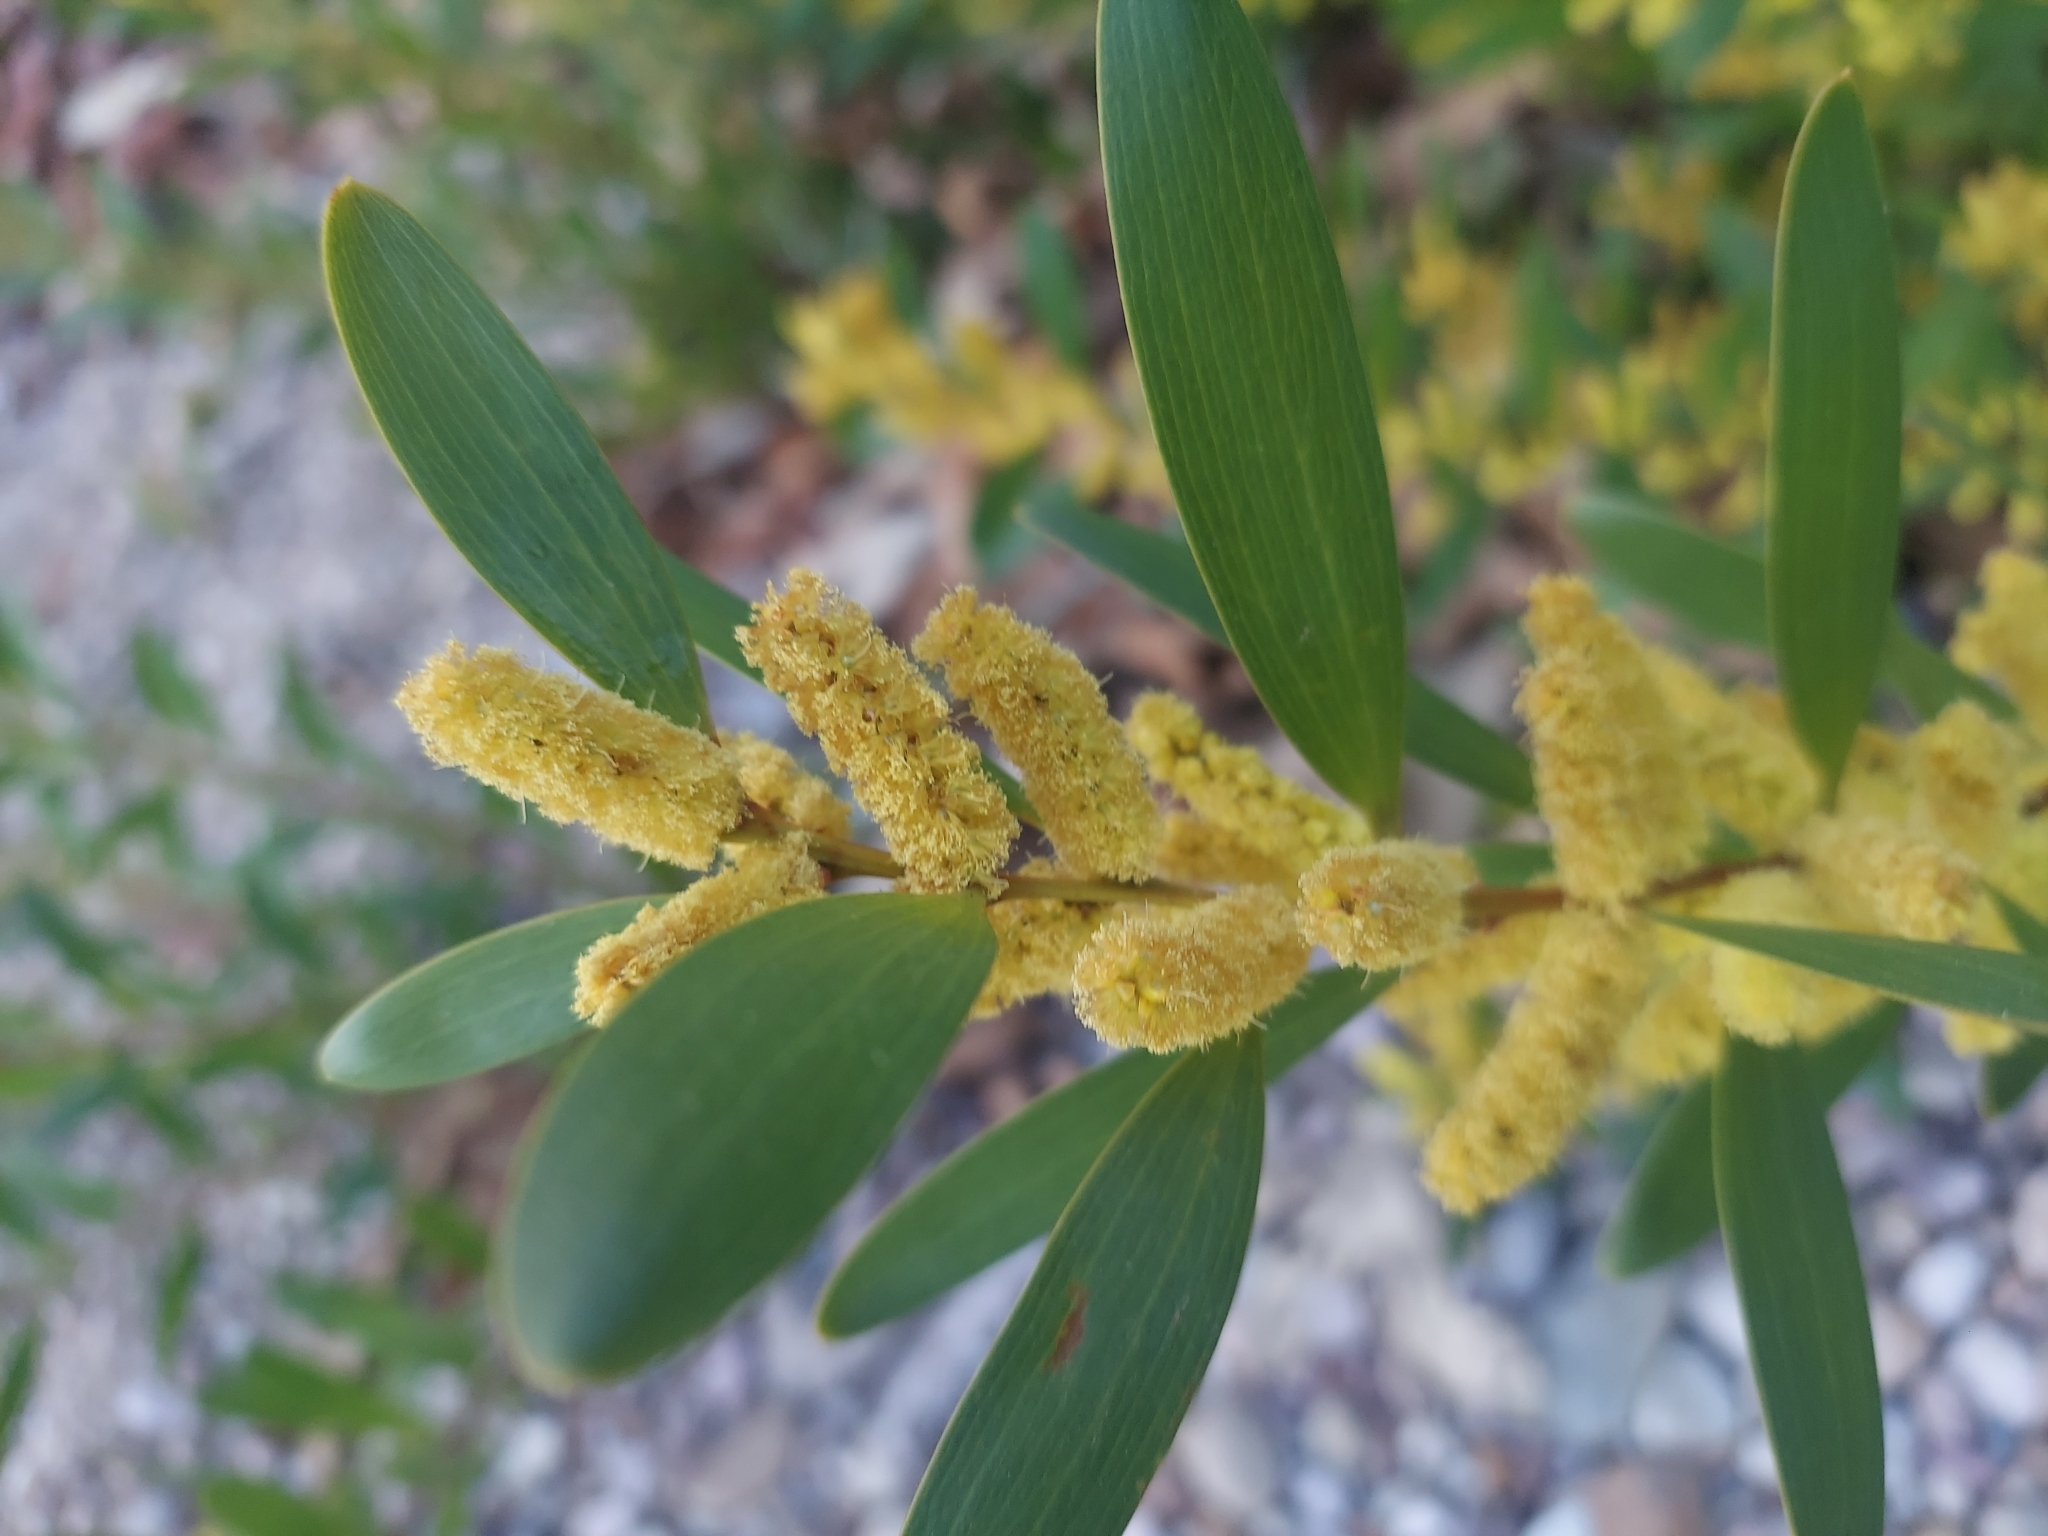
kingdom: Plantae
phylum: Tracheophyta
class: Magnoliopsida
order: Fabales
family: Fabaceae
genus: Acacia
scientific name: Acacia longifolia
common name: Sydney golden wattle
